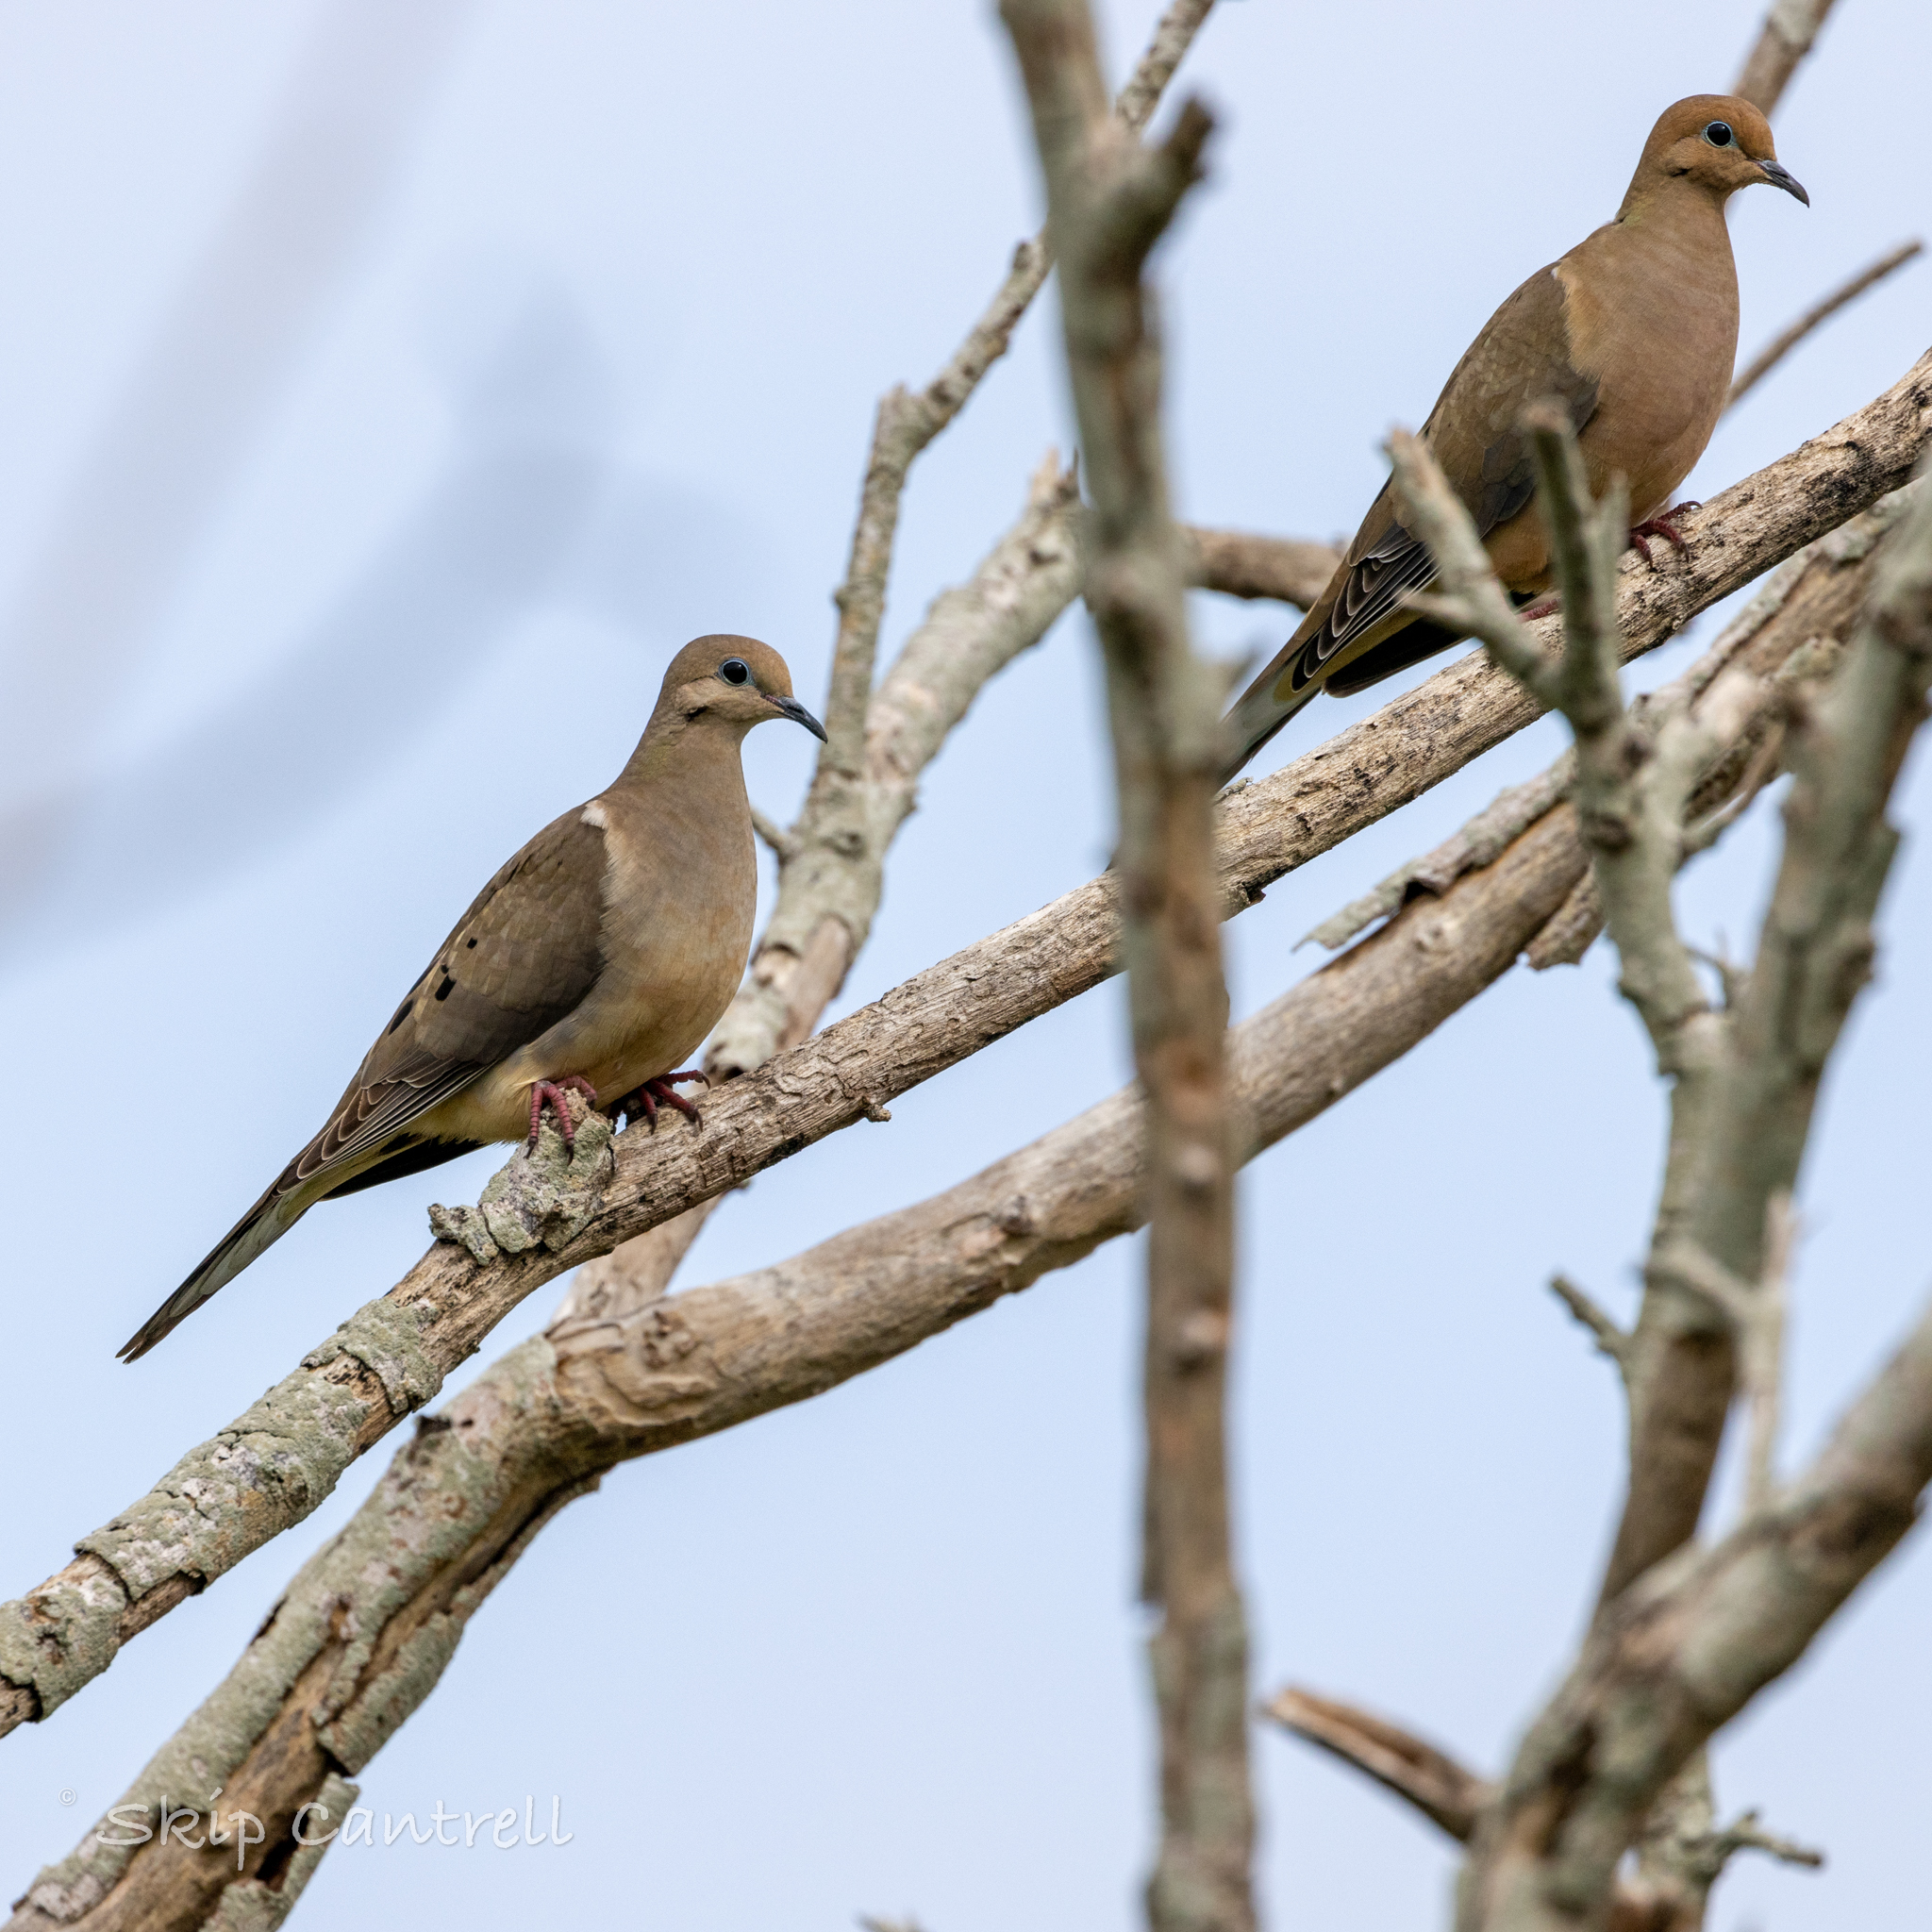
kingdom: Animalia
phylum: Chordata
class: Aves
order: Columbiformes
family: Columbidae
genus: Zenaida
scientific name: Zenaida macroura
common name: Mourning dove
